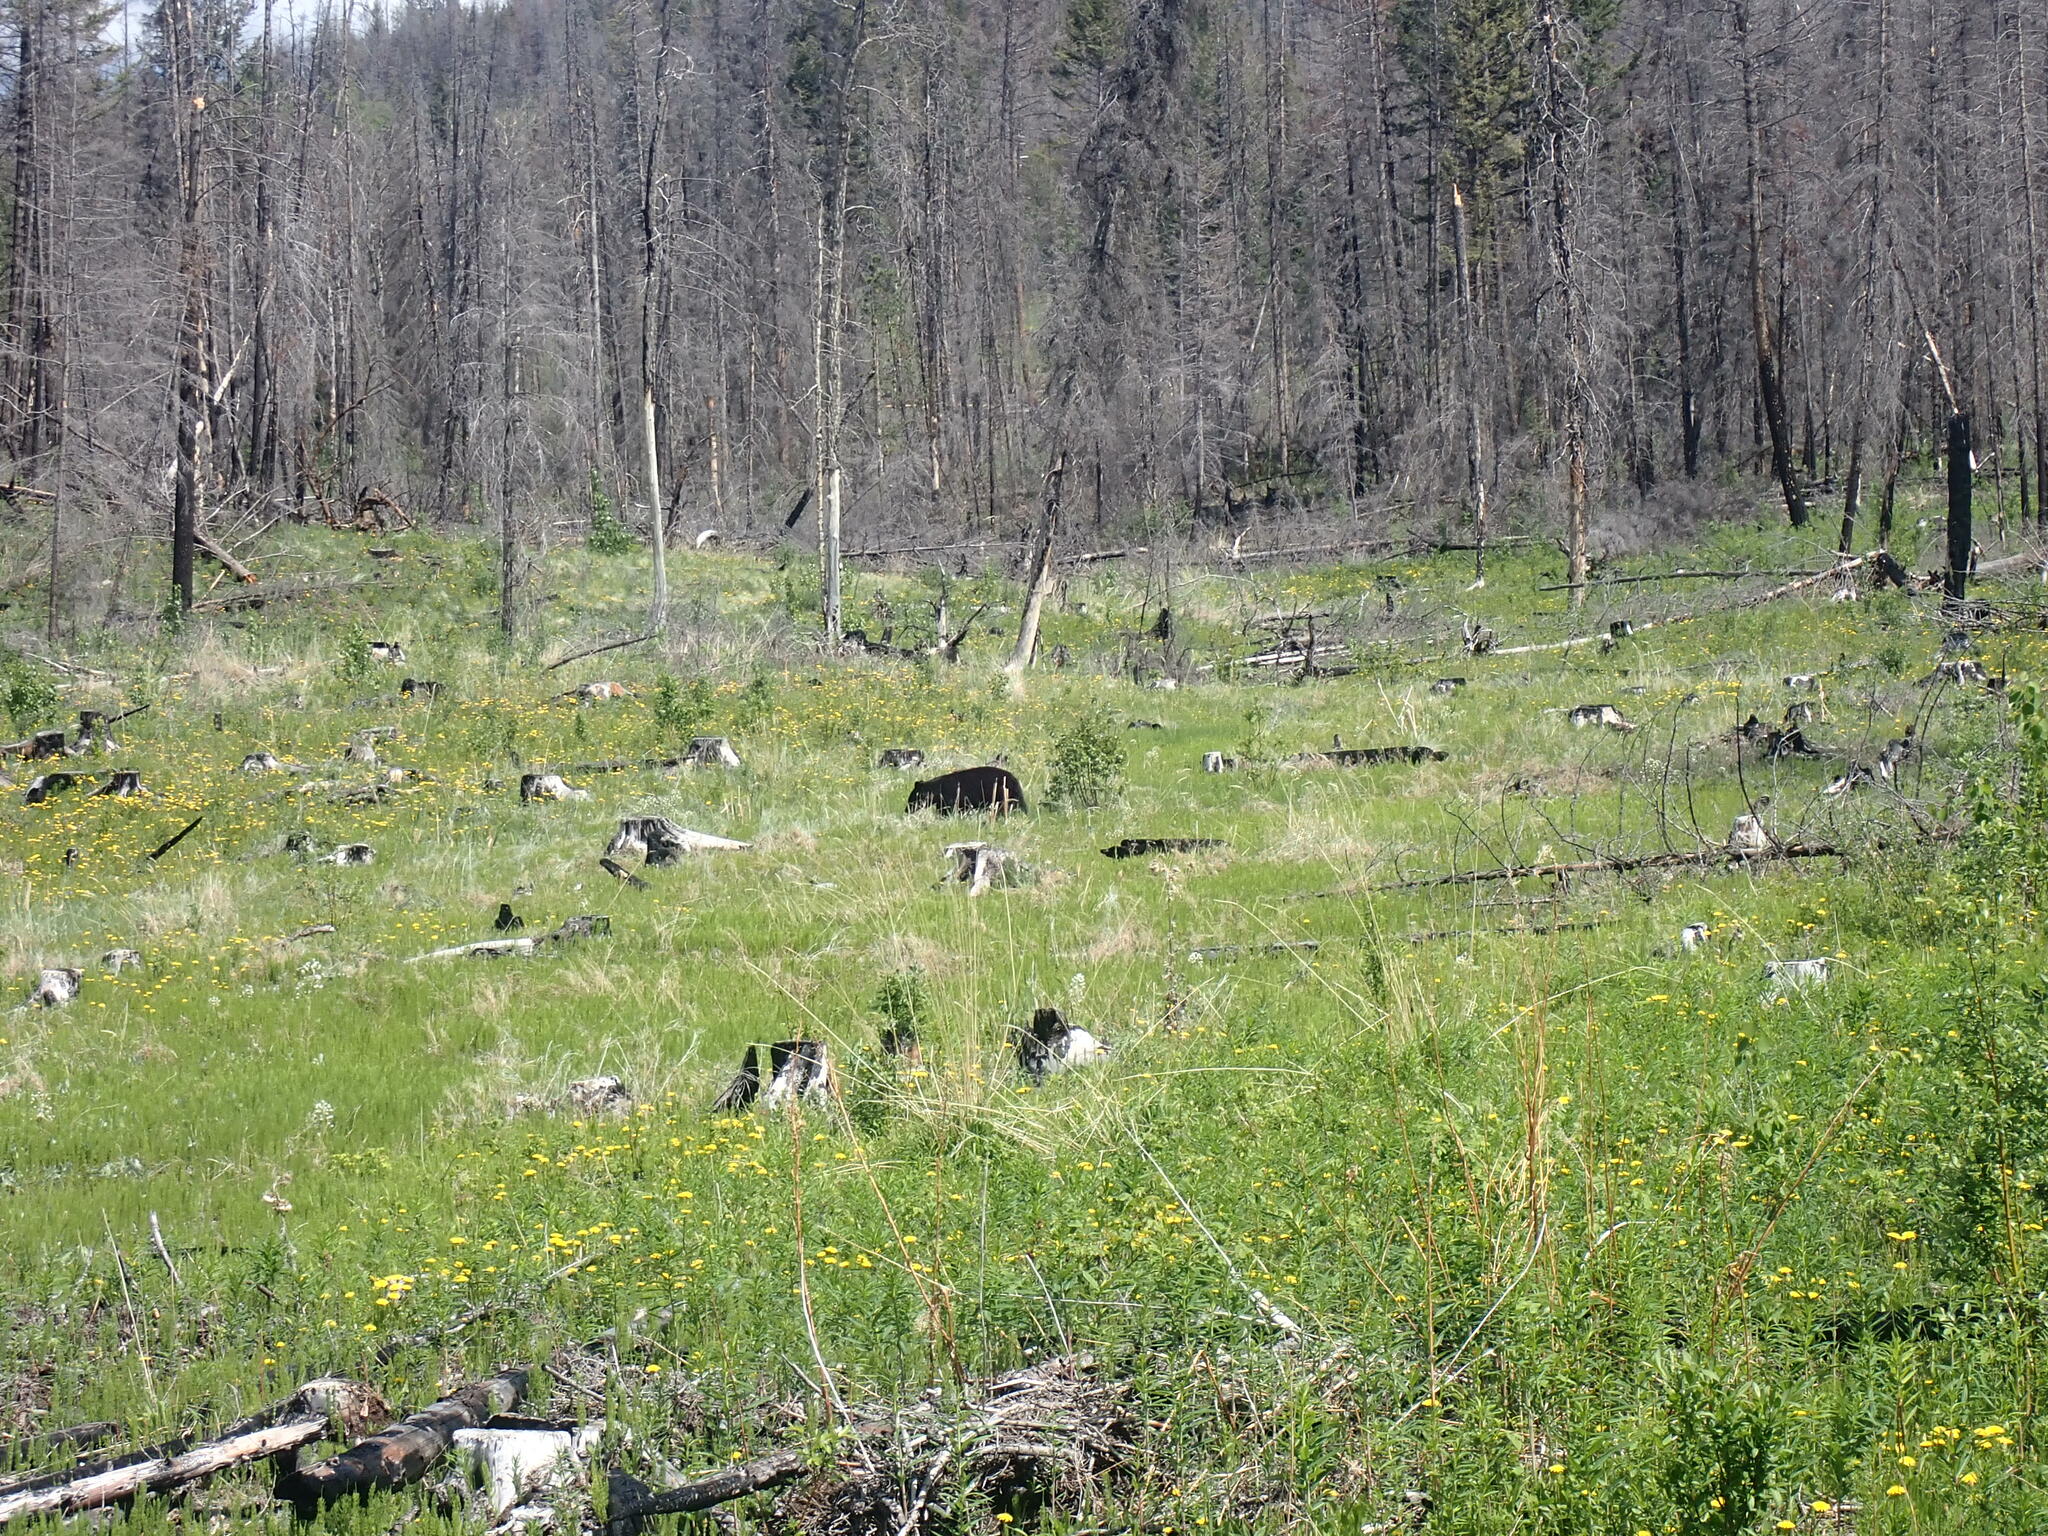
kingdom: Animalia
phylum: Chordata
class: Mammalia
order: Carnivora
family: Ursidae
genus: Ursus
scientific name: Ursus americanus
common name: American black bear
